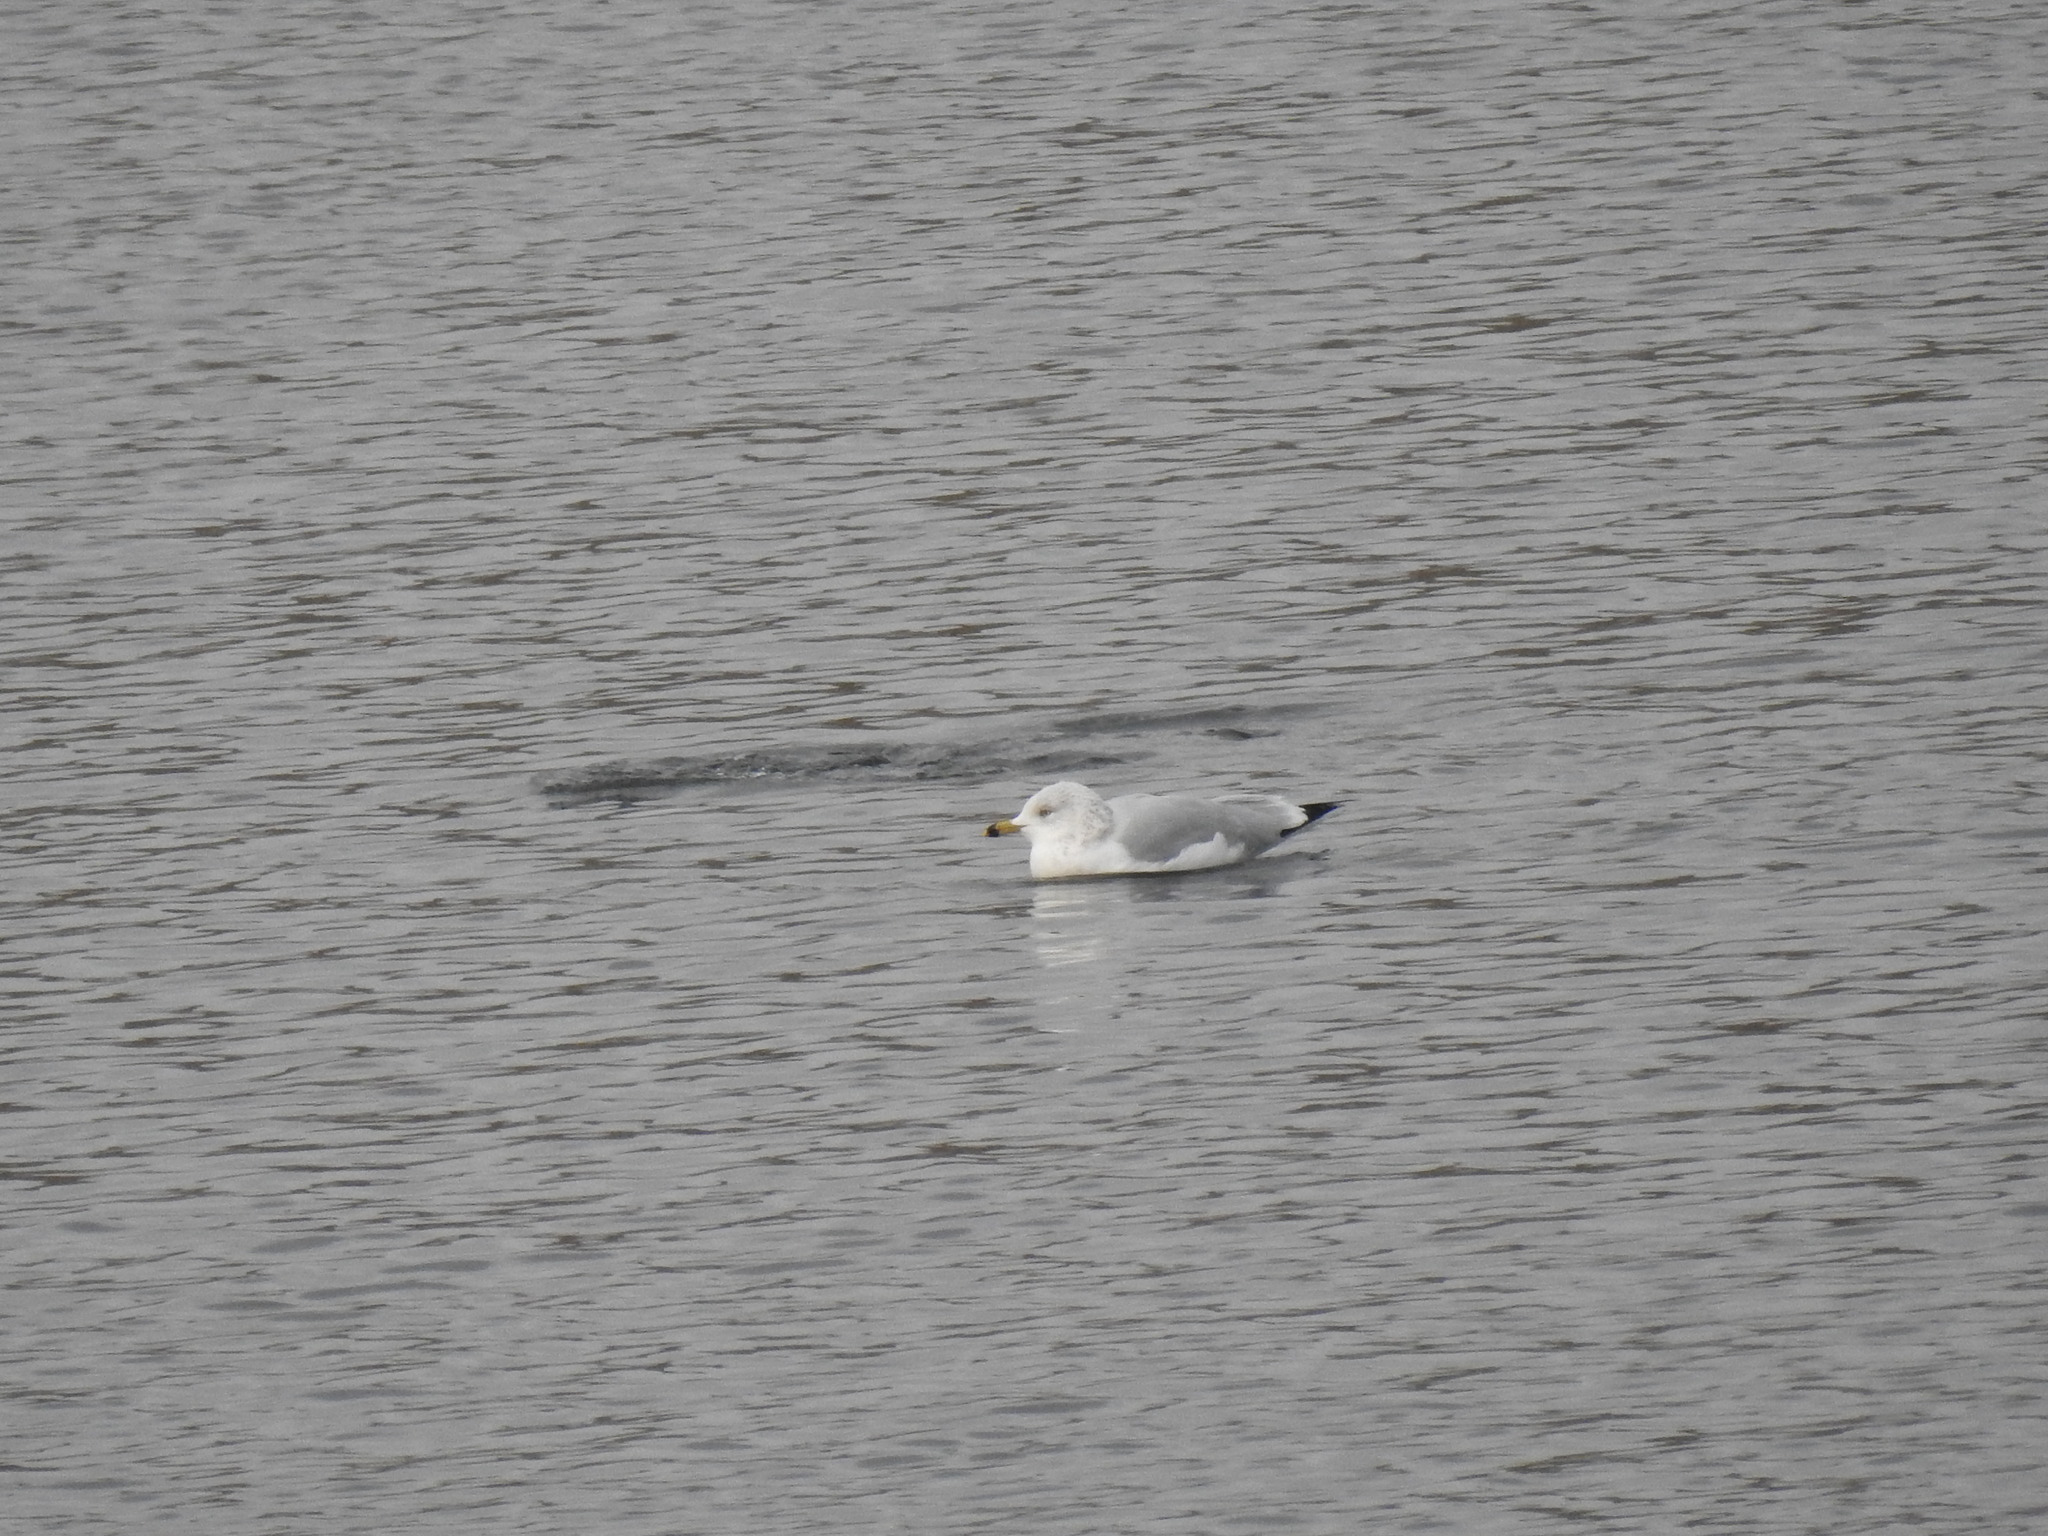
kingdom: Animalia
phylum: Chordata
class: Aves
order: Charadriiformes
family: Laridae
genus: Larus
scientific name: Larus delawarensis
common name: Ring-billed gull
